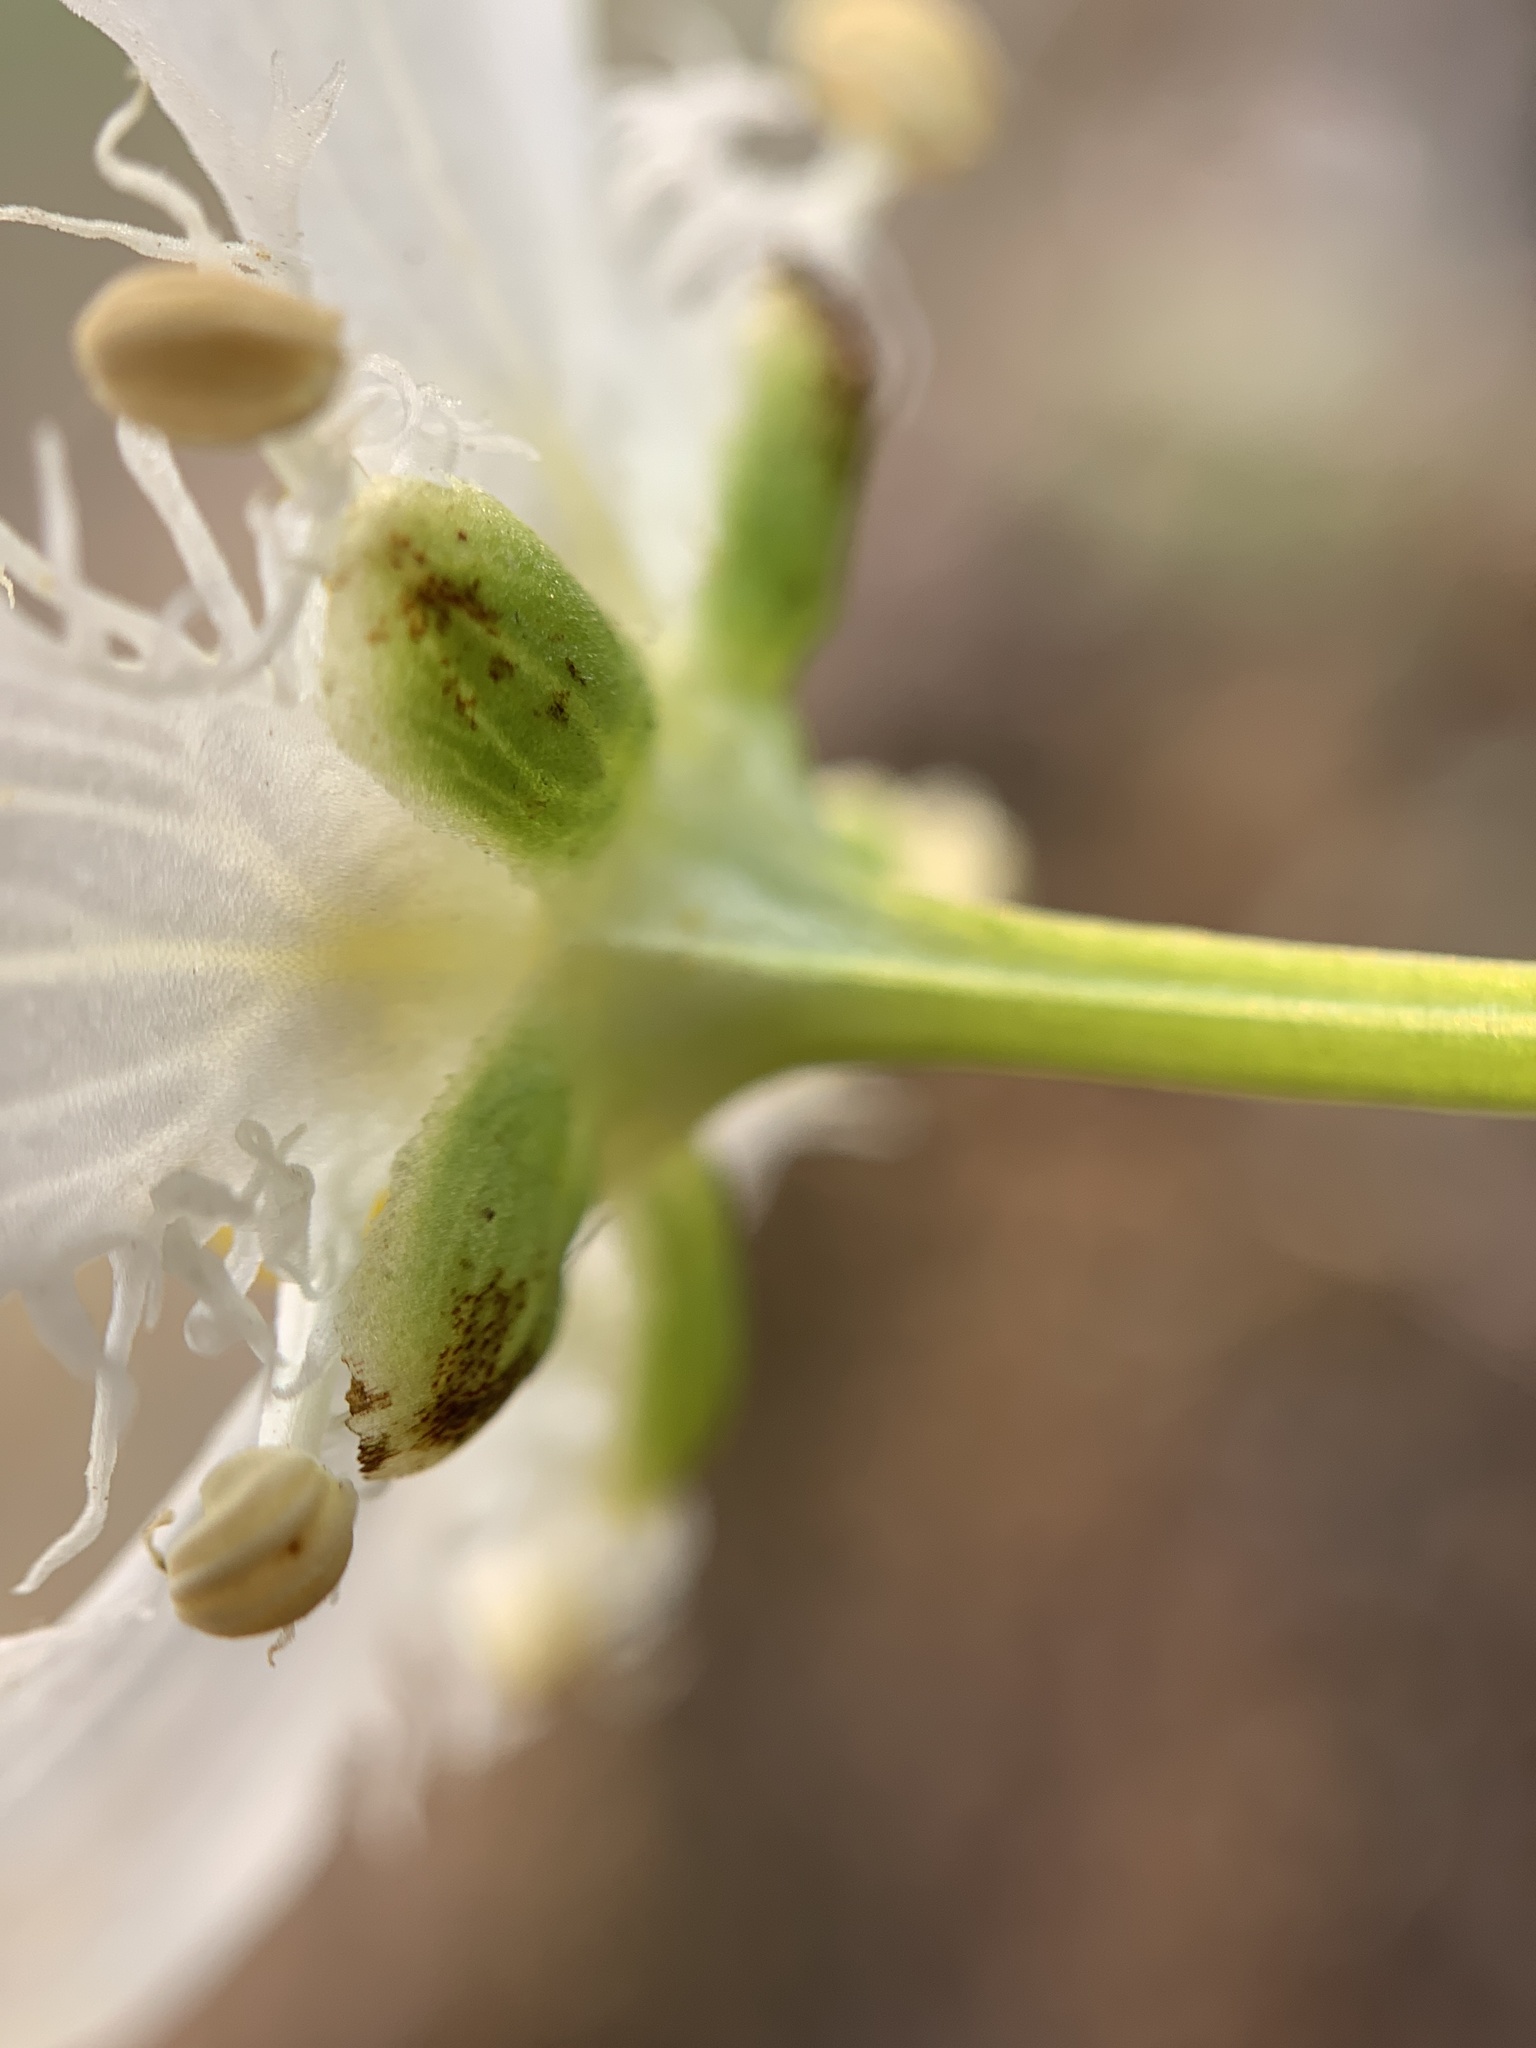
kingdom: Plantae
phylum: Tracheophyta
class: Magnoliopsida
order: Celastrales
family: Parnassiaceae
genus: Parnassia
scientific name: Parnassia fimbriata
